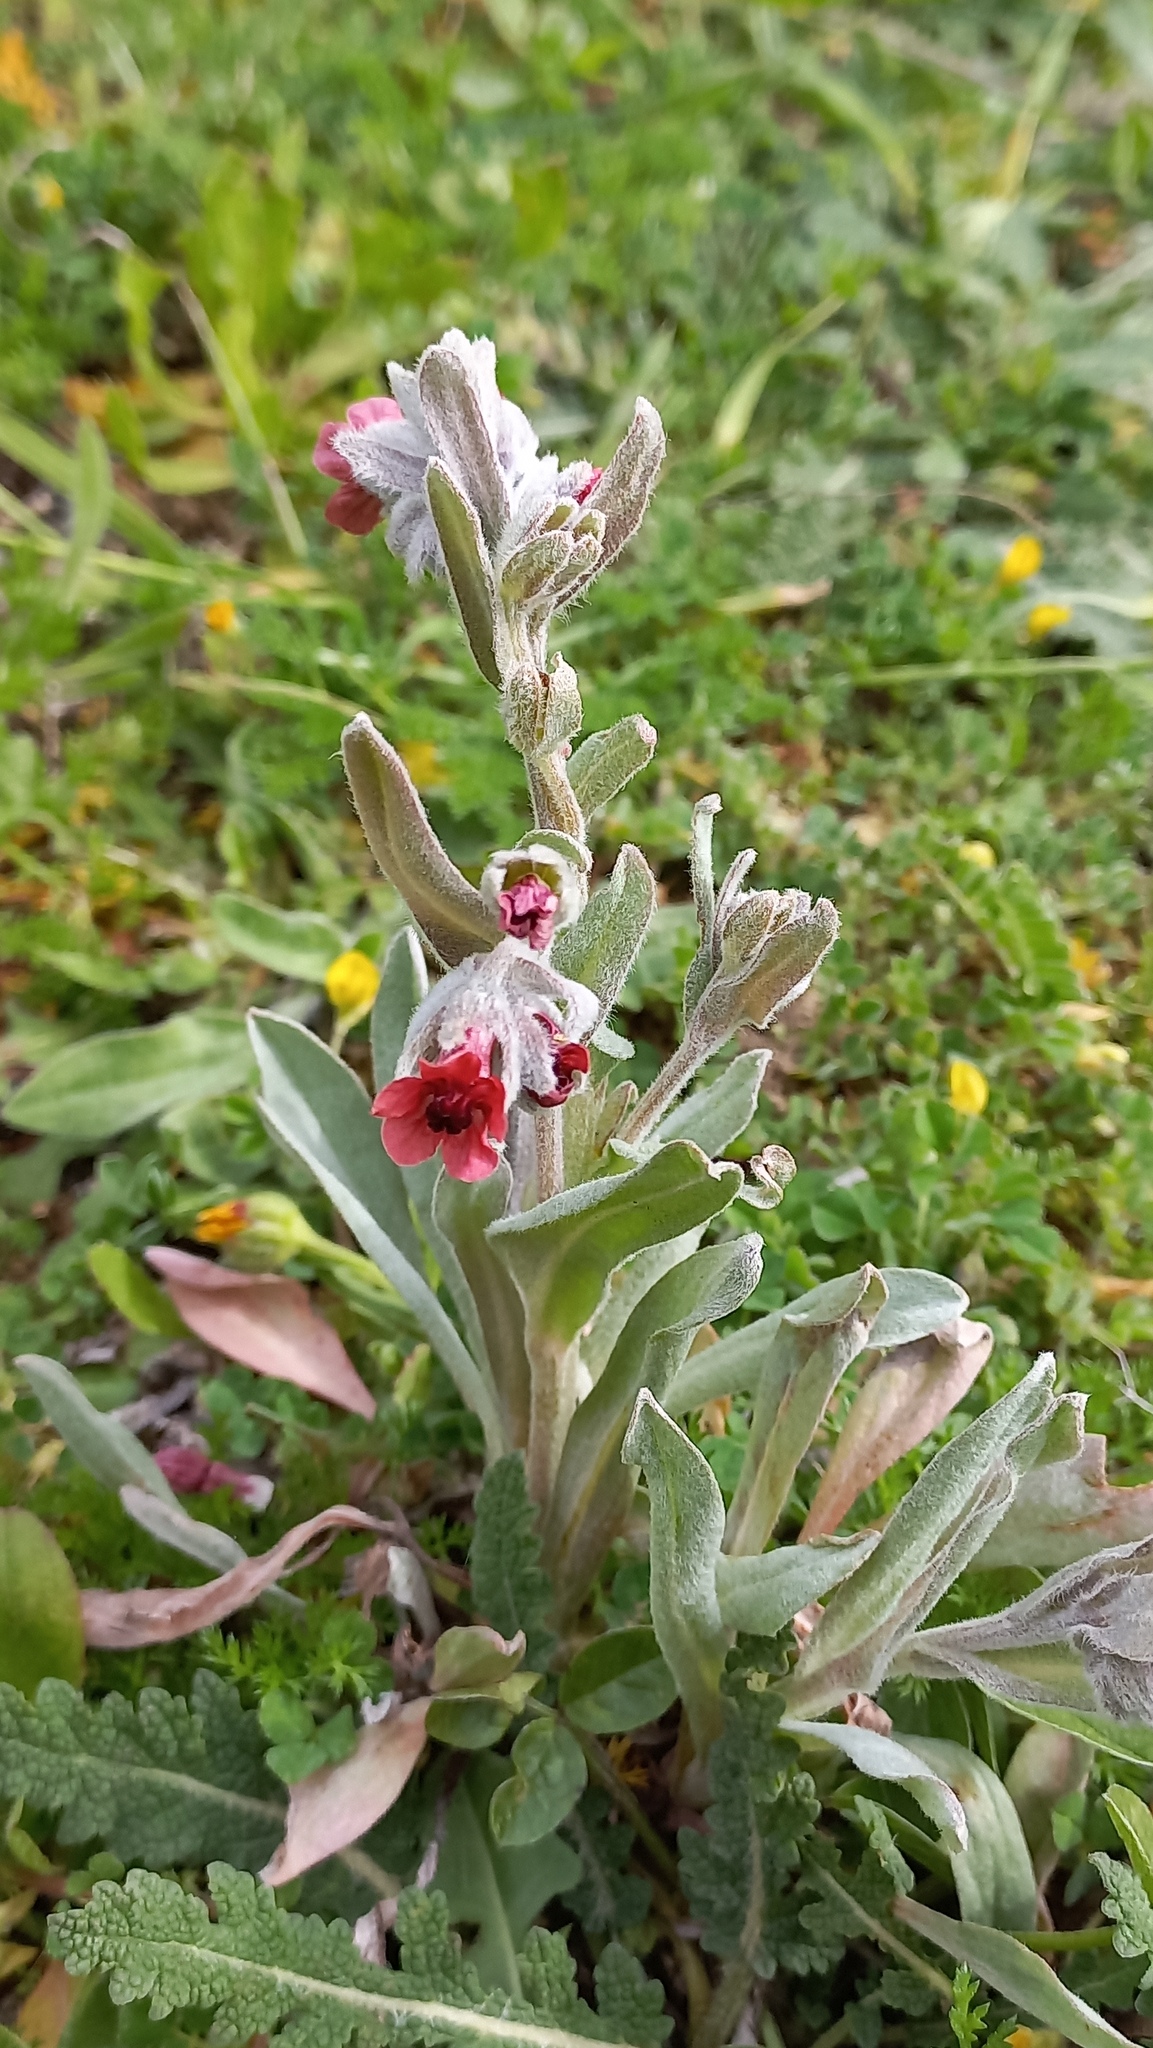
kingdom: Plantae
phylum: Tracheophyta
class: Magnoliopsida
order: Boraginales
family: Boraginaceae
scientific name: Boraginaceae
